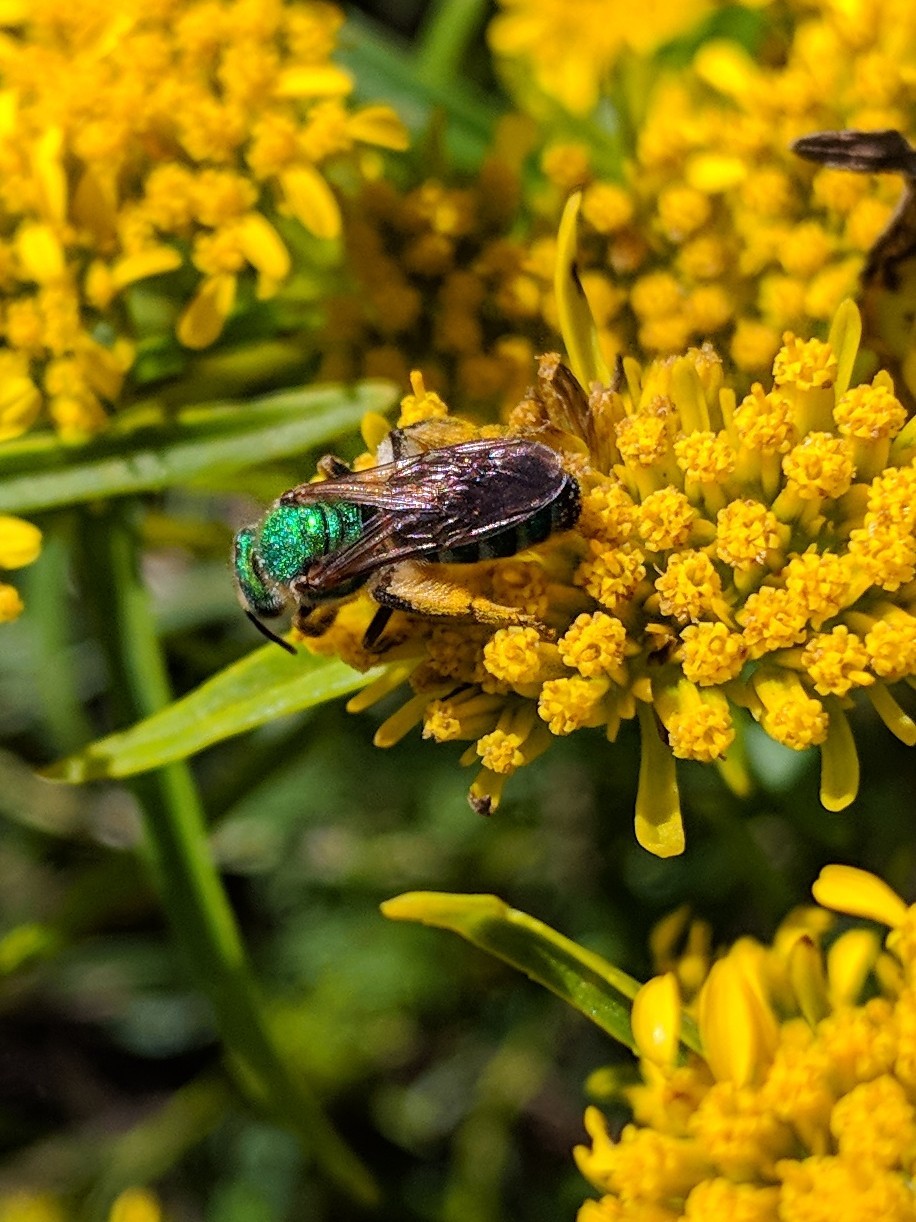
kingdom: Animalia
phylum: Arthropoda
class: Insecta
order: Hymenoptera
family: Halictidae
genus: Agapostemon
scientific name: Agapostemon splendens
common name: Brown-winged striped sweat bee
